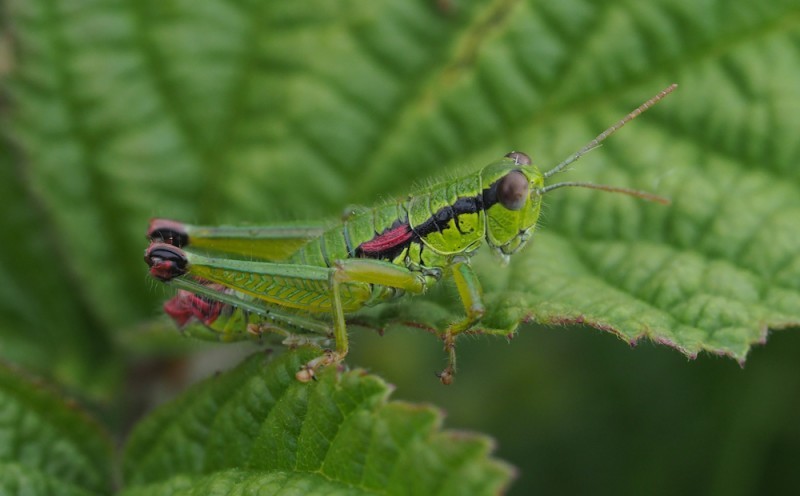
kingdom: Animalia
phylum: Arthropoda
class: Insecta
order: Orthoptera
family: Acrididae
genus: Odontopodisma
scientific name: Odontopodisma decipiens
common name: Cheating mountain grasshopper
